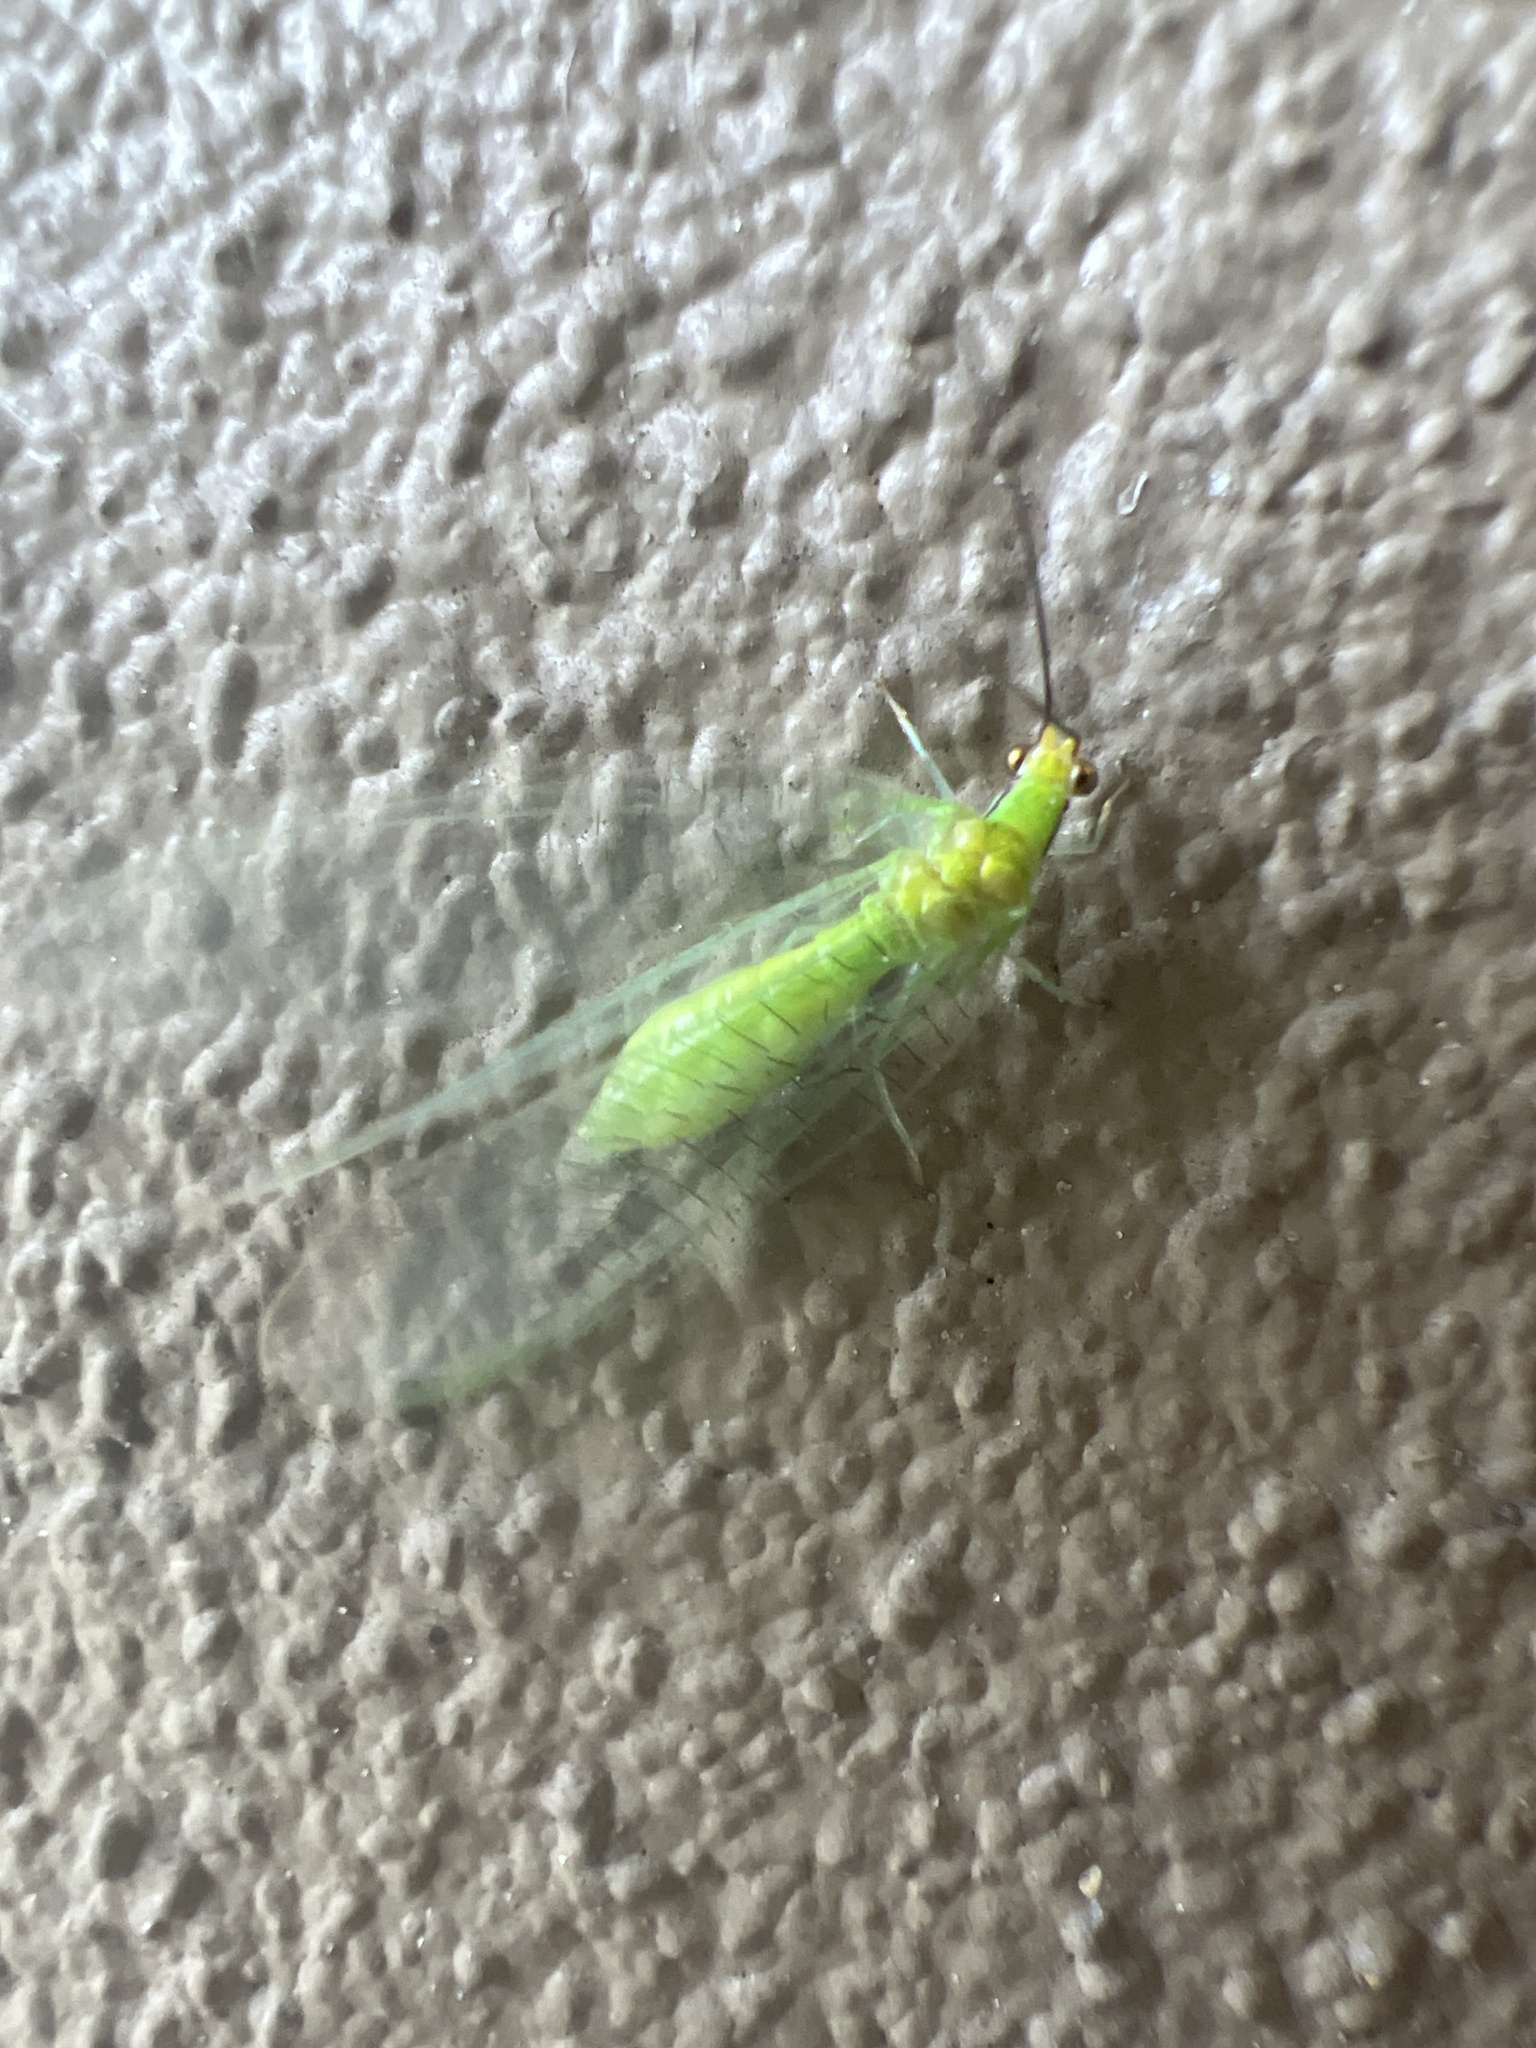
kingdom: Animalia
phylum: Arthropoda
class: Insecta
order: Neuroptera
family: Chrysopidae
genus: Leucochrysa
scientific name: Leucochrysa pavida
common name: Lichen-carrying green lacewing
